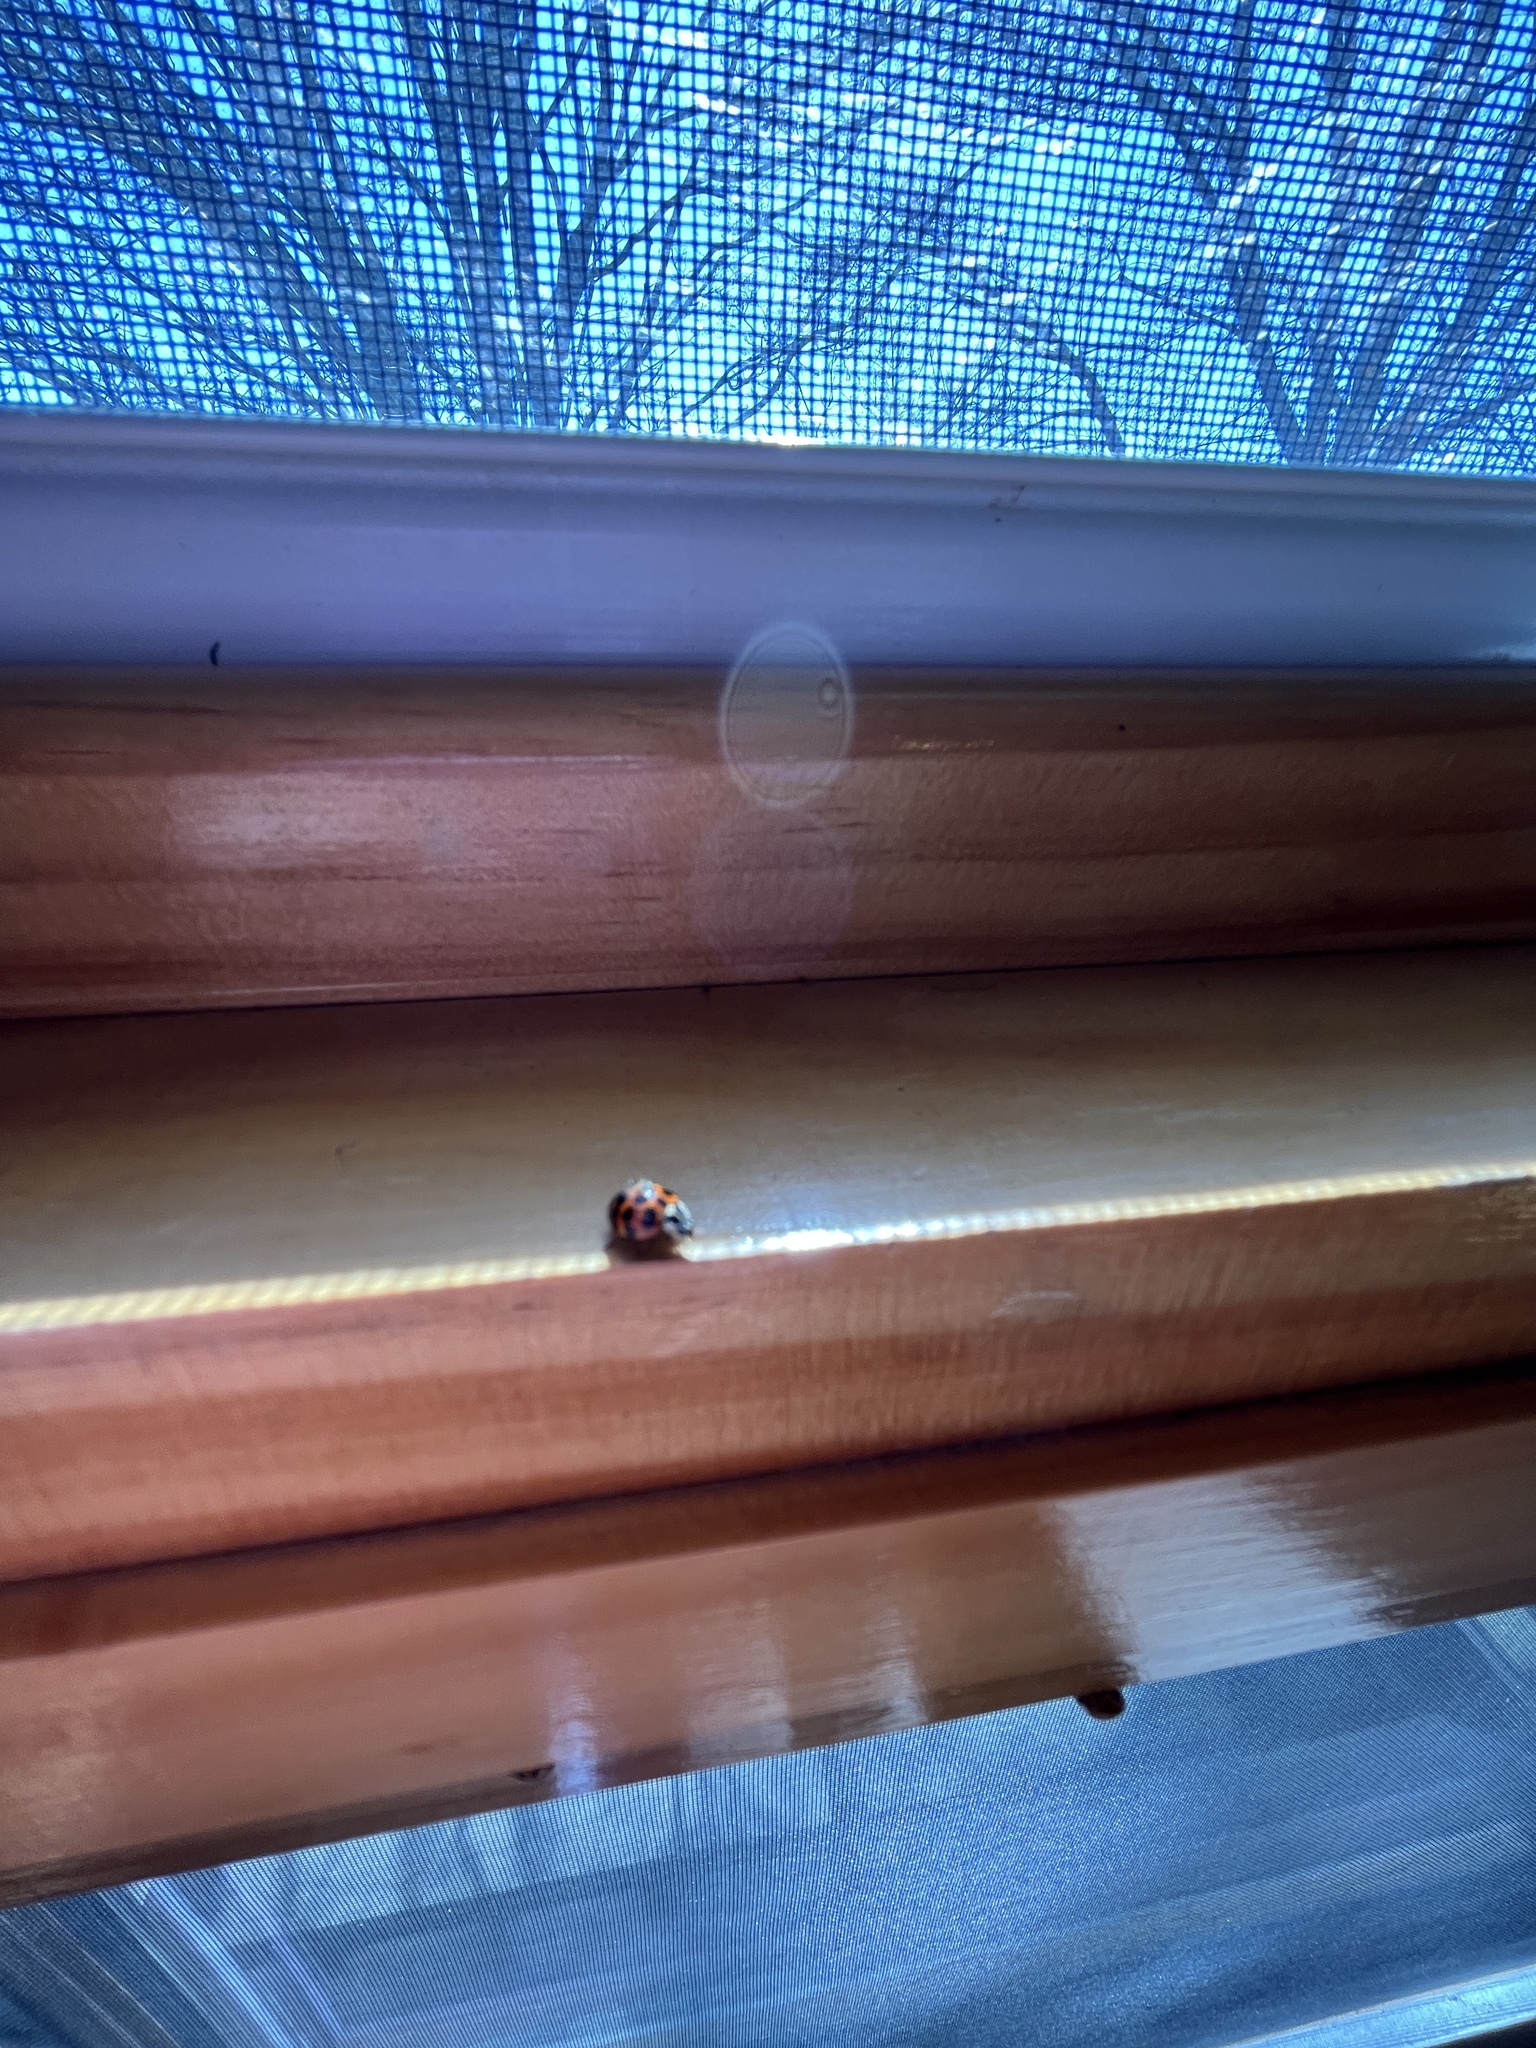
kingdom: Animalia
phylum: Arthropoda
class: Insecta
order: Coleoptera
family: Coccinellidae
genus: Harmonia
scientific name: Harmonia axyridis
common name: Harlequin ladybird
